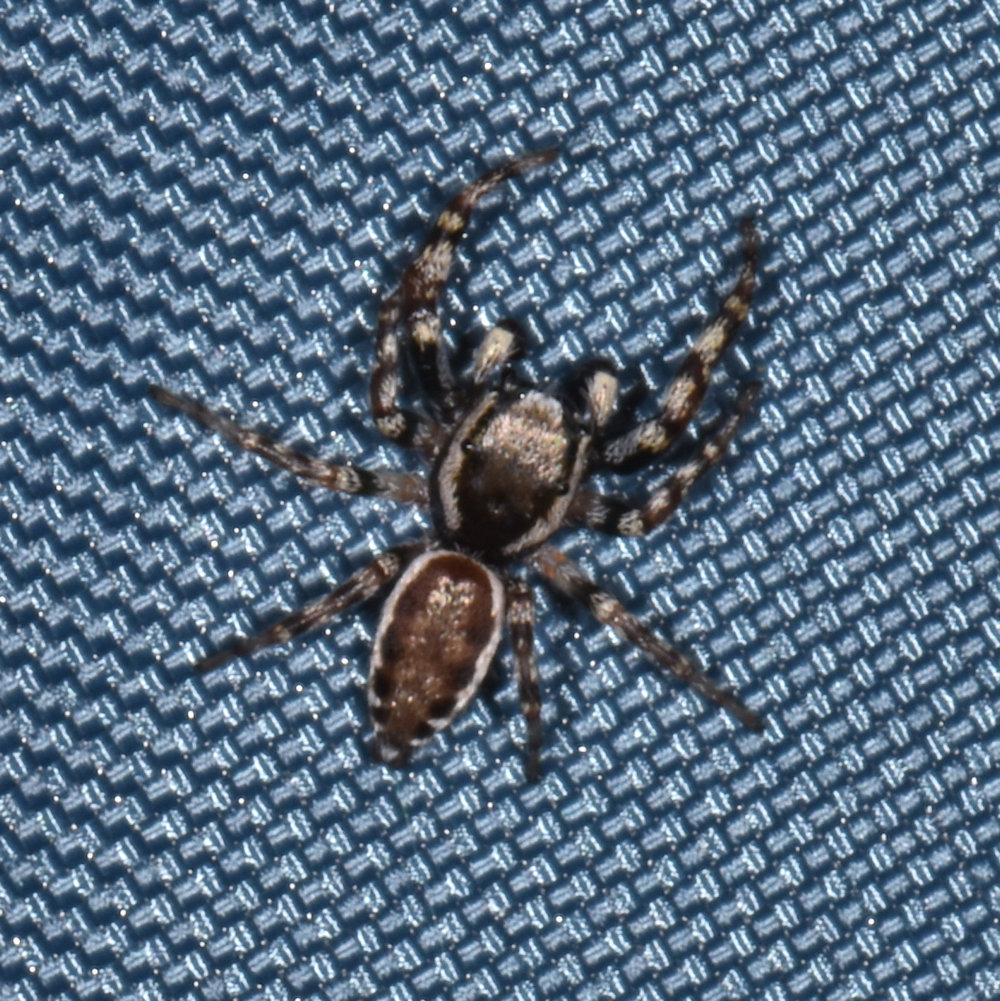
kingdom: Animalia
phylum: Arthropoda
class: Arachnida
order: Araneae
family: Salticidae
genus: Pelegrina
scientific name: Pelegrina proterva
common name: Common white-cheeked jumping spider
